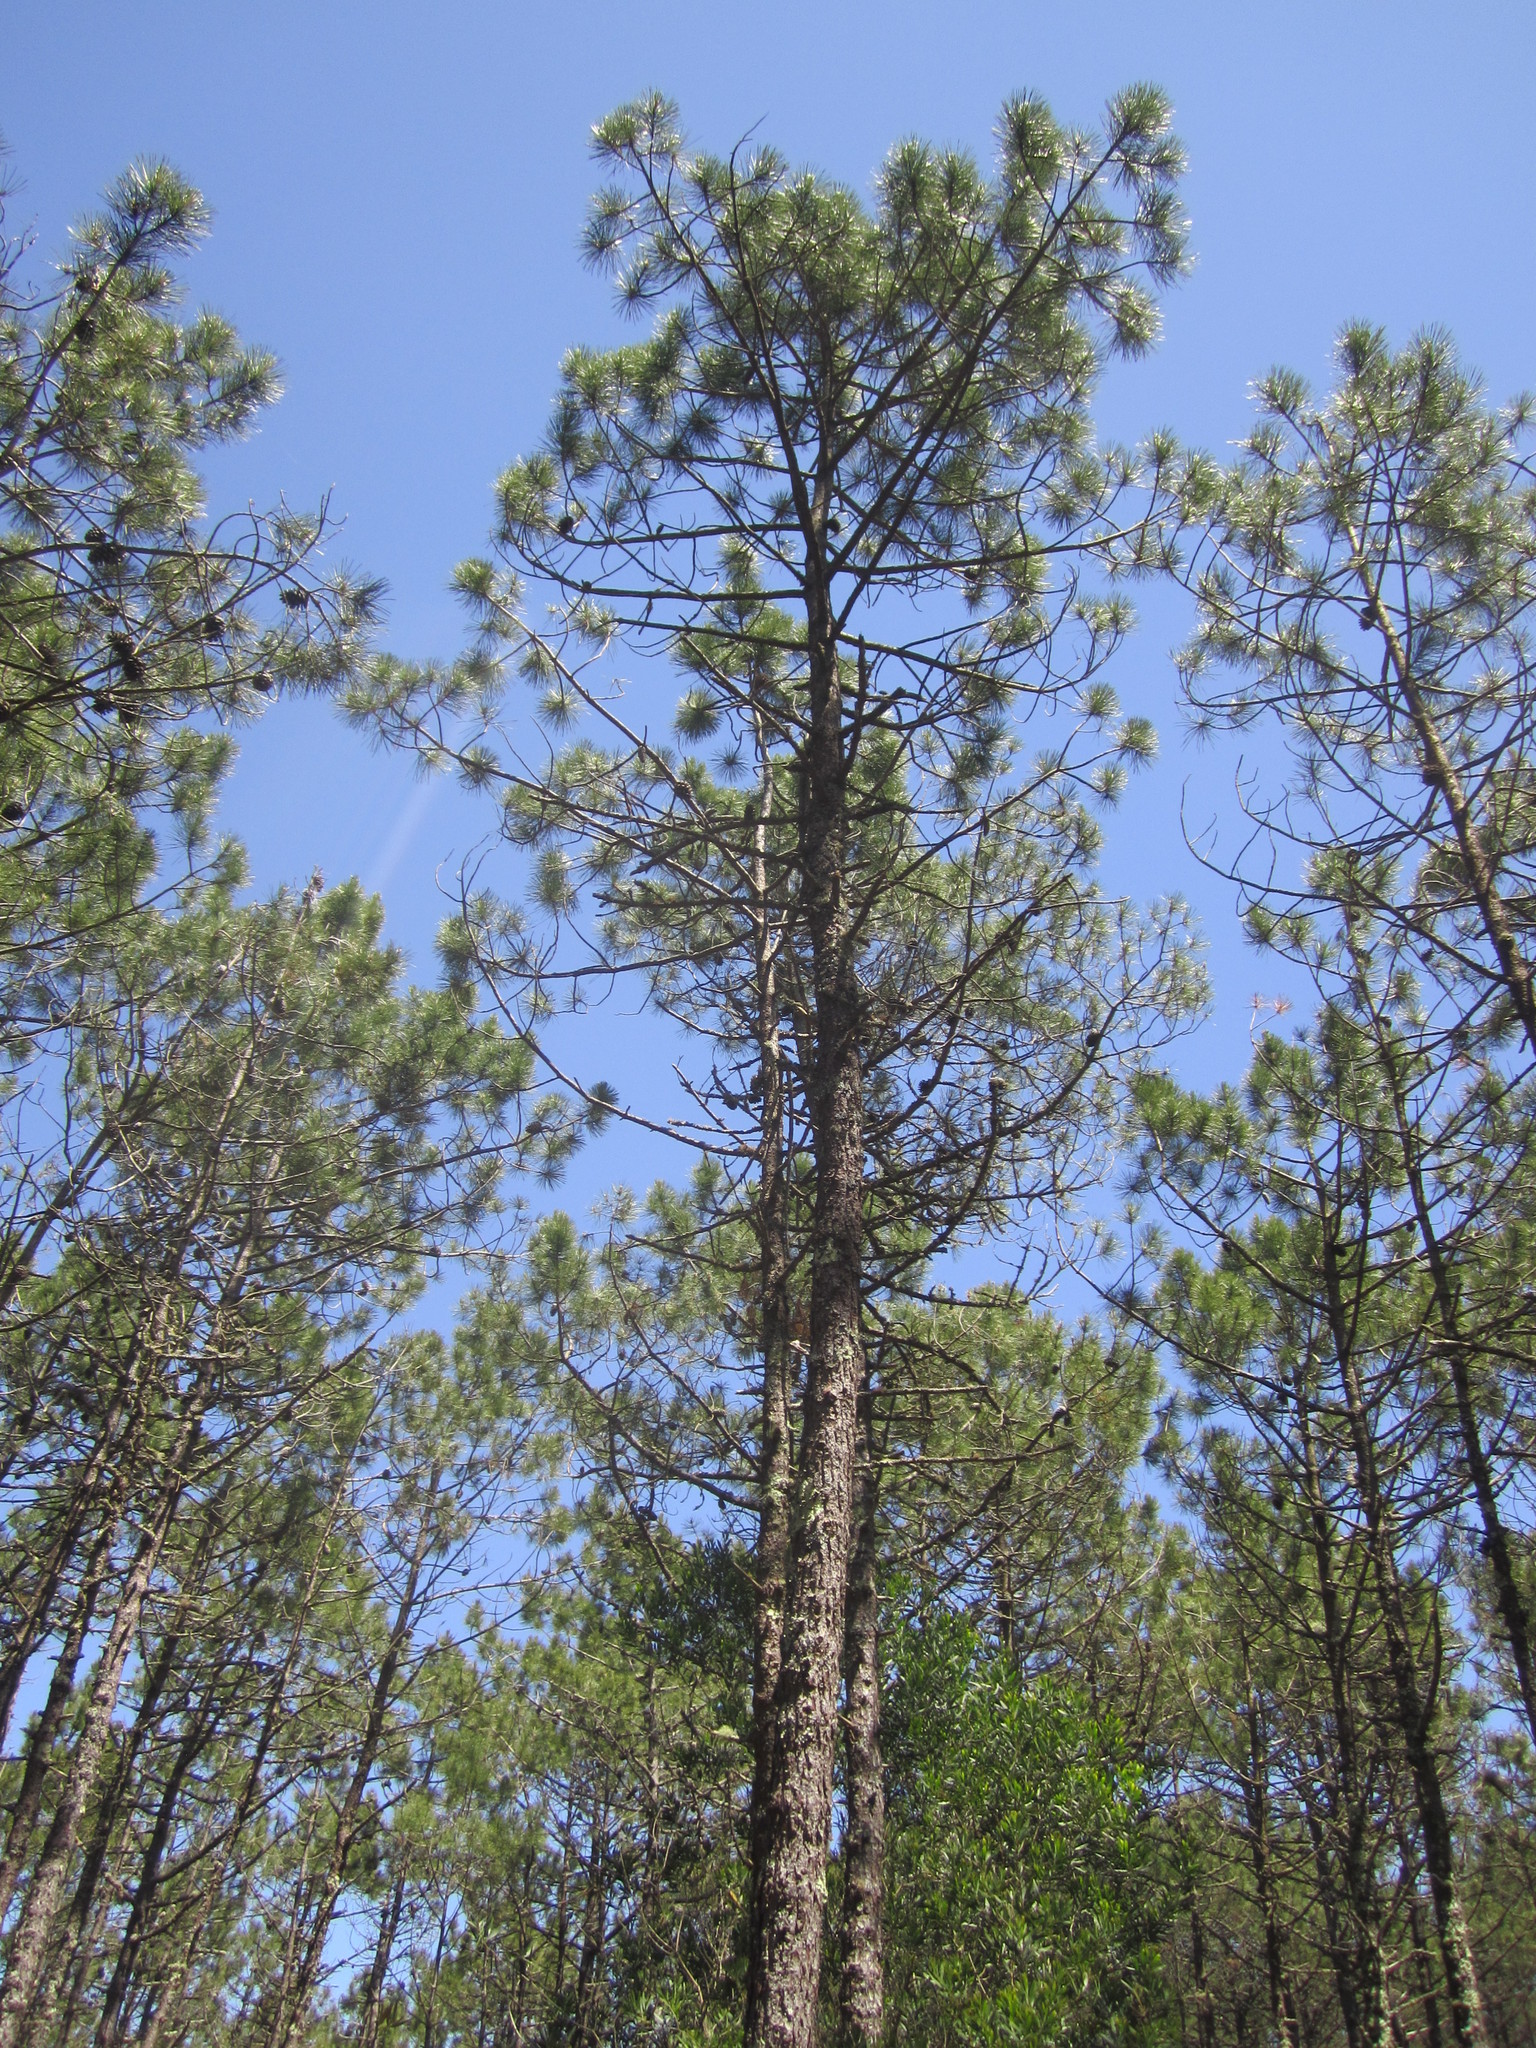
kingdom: Plantae
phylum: Tracheophyta
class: Pinopsida
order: Pinales
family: Pinaceae
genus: Pinus
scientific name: Pinus pinaster
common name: Maritime pine
